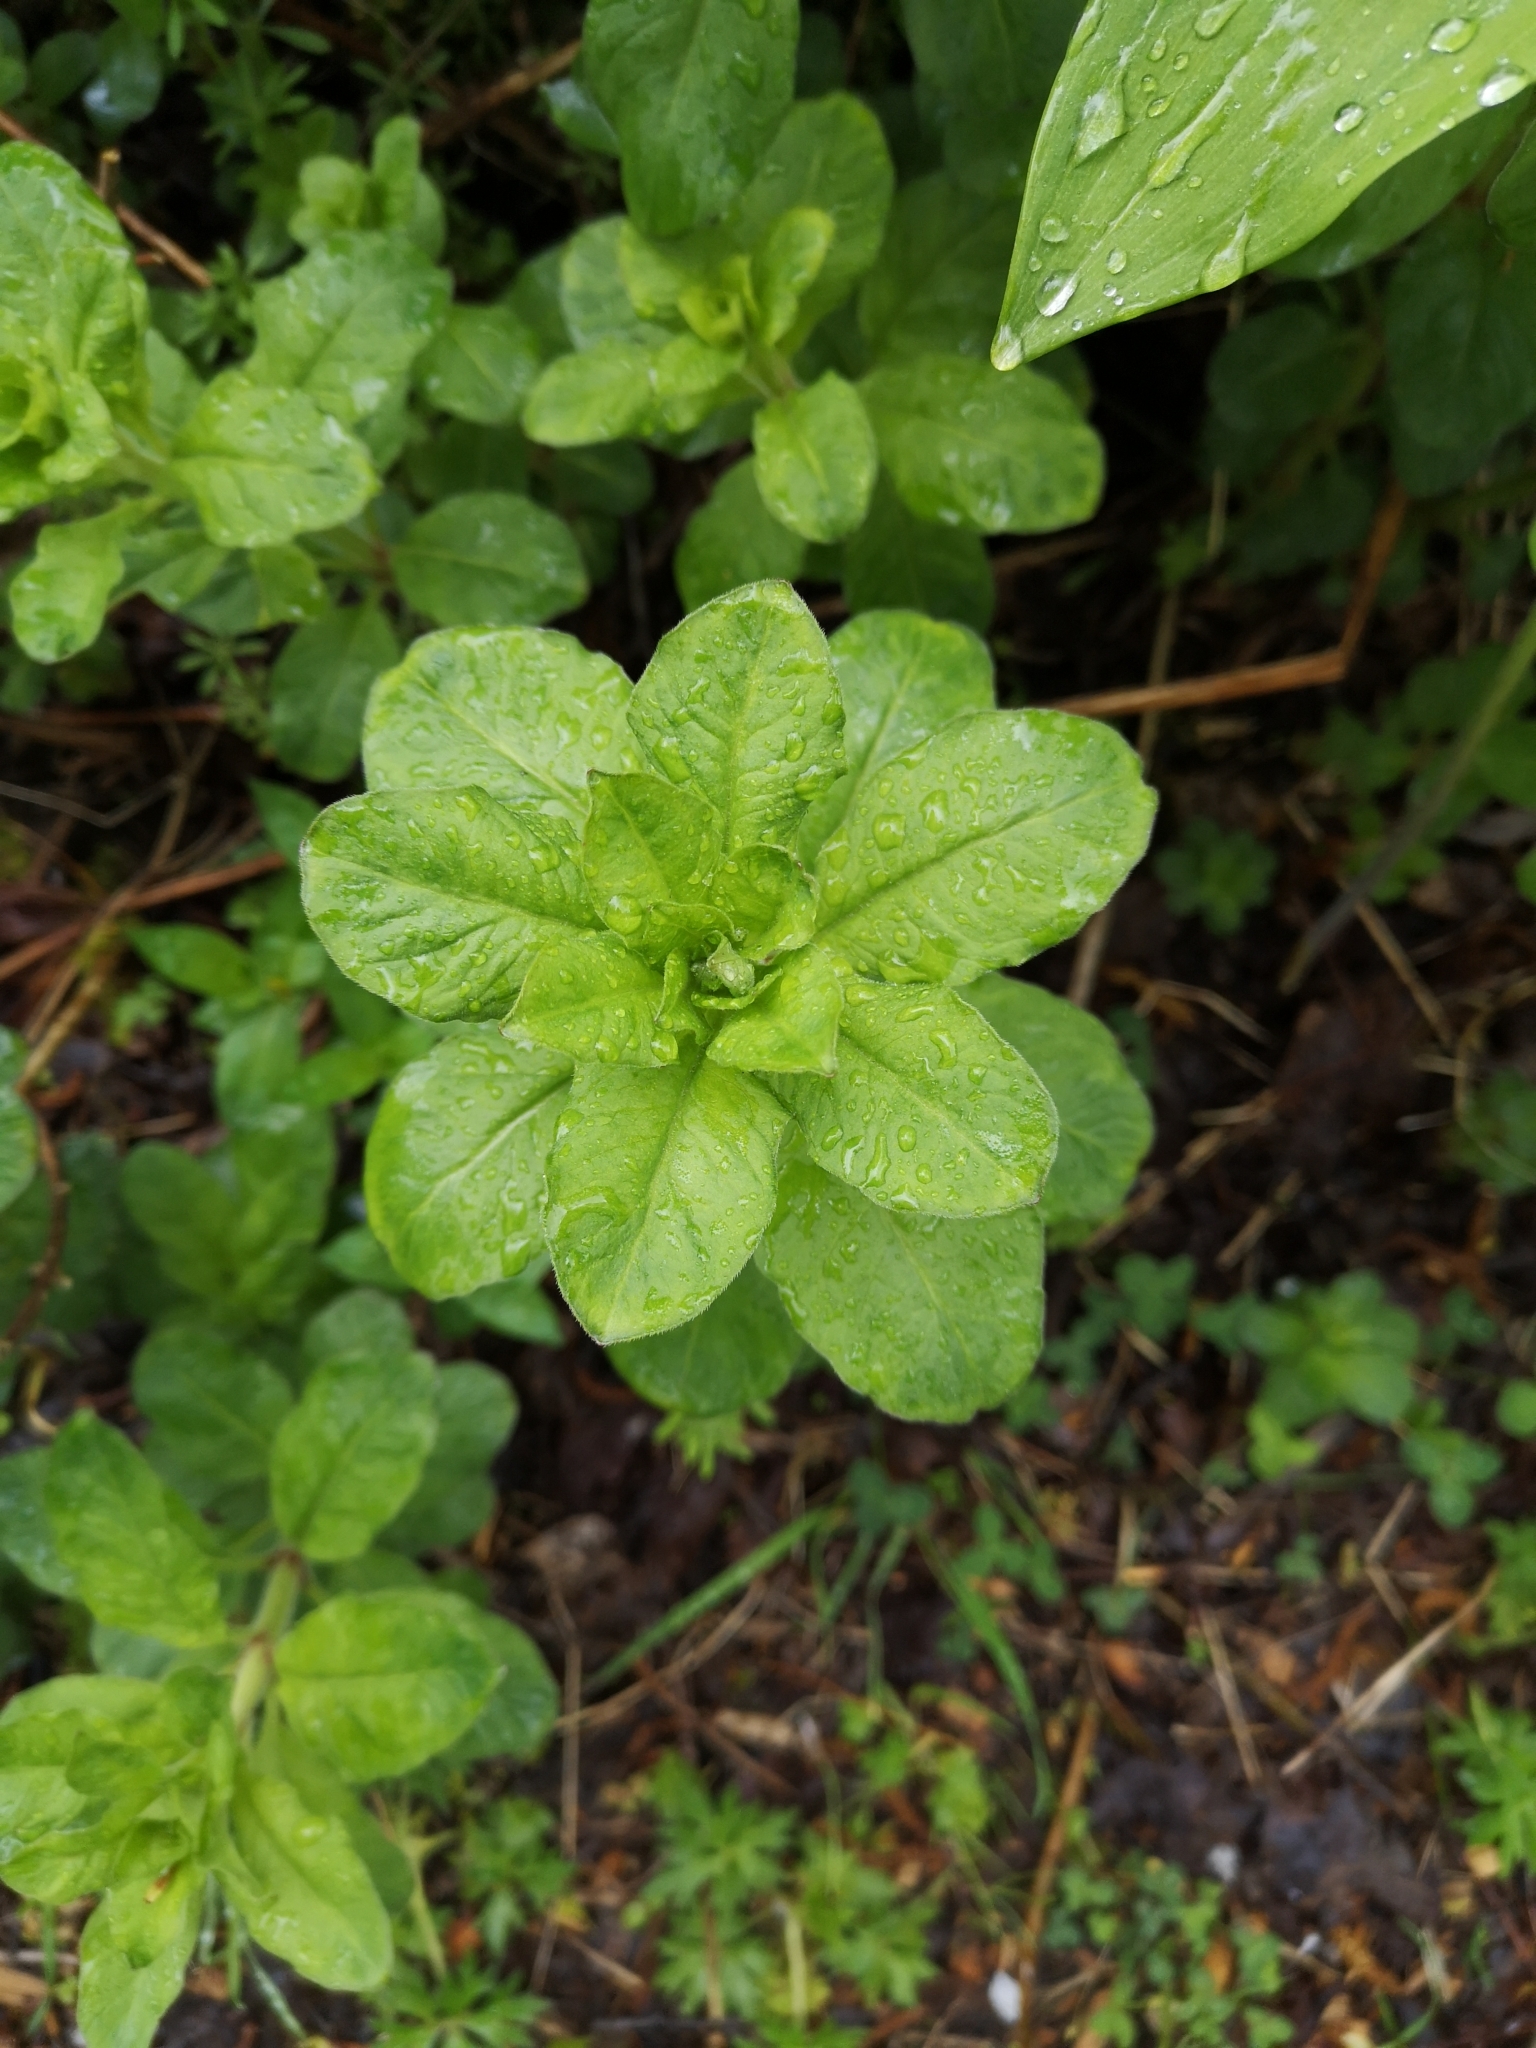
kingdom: Plantae
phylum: Tracheophyta
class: Magnoliopsida
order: Ericales
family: Primulaceae
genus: Lysimachia
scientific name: Lysimachia punctata
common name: Dotted loosestrife
